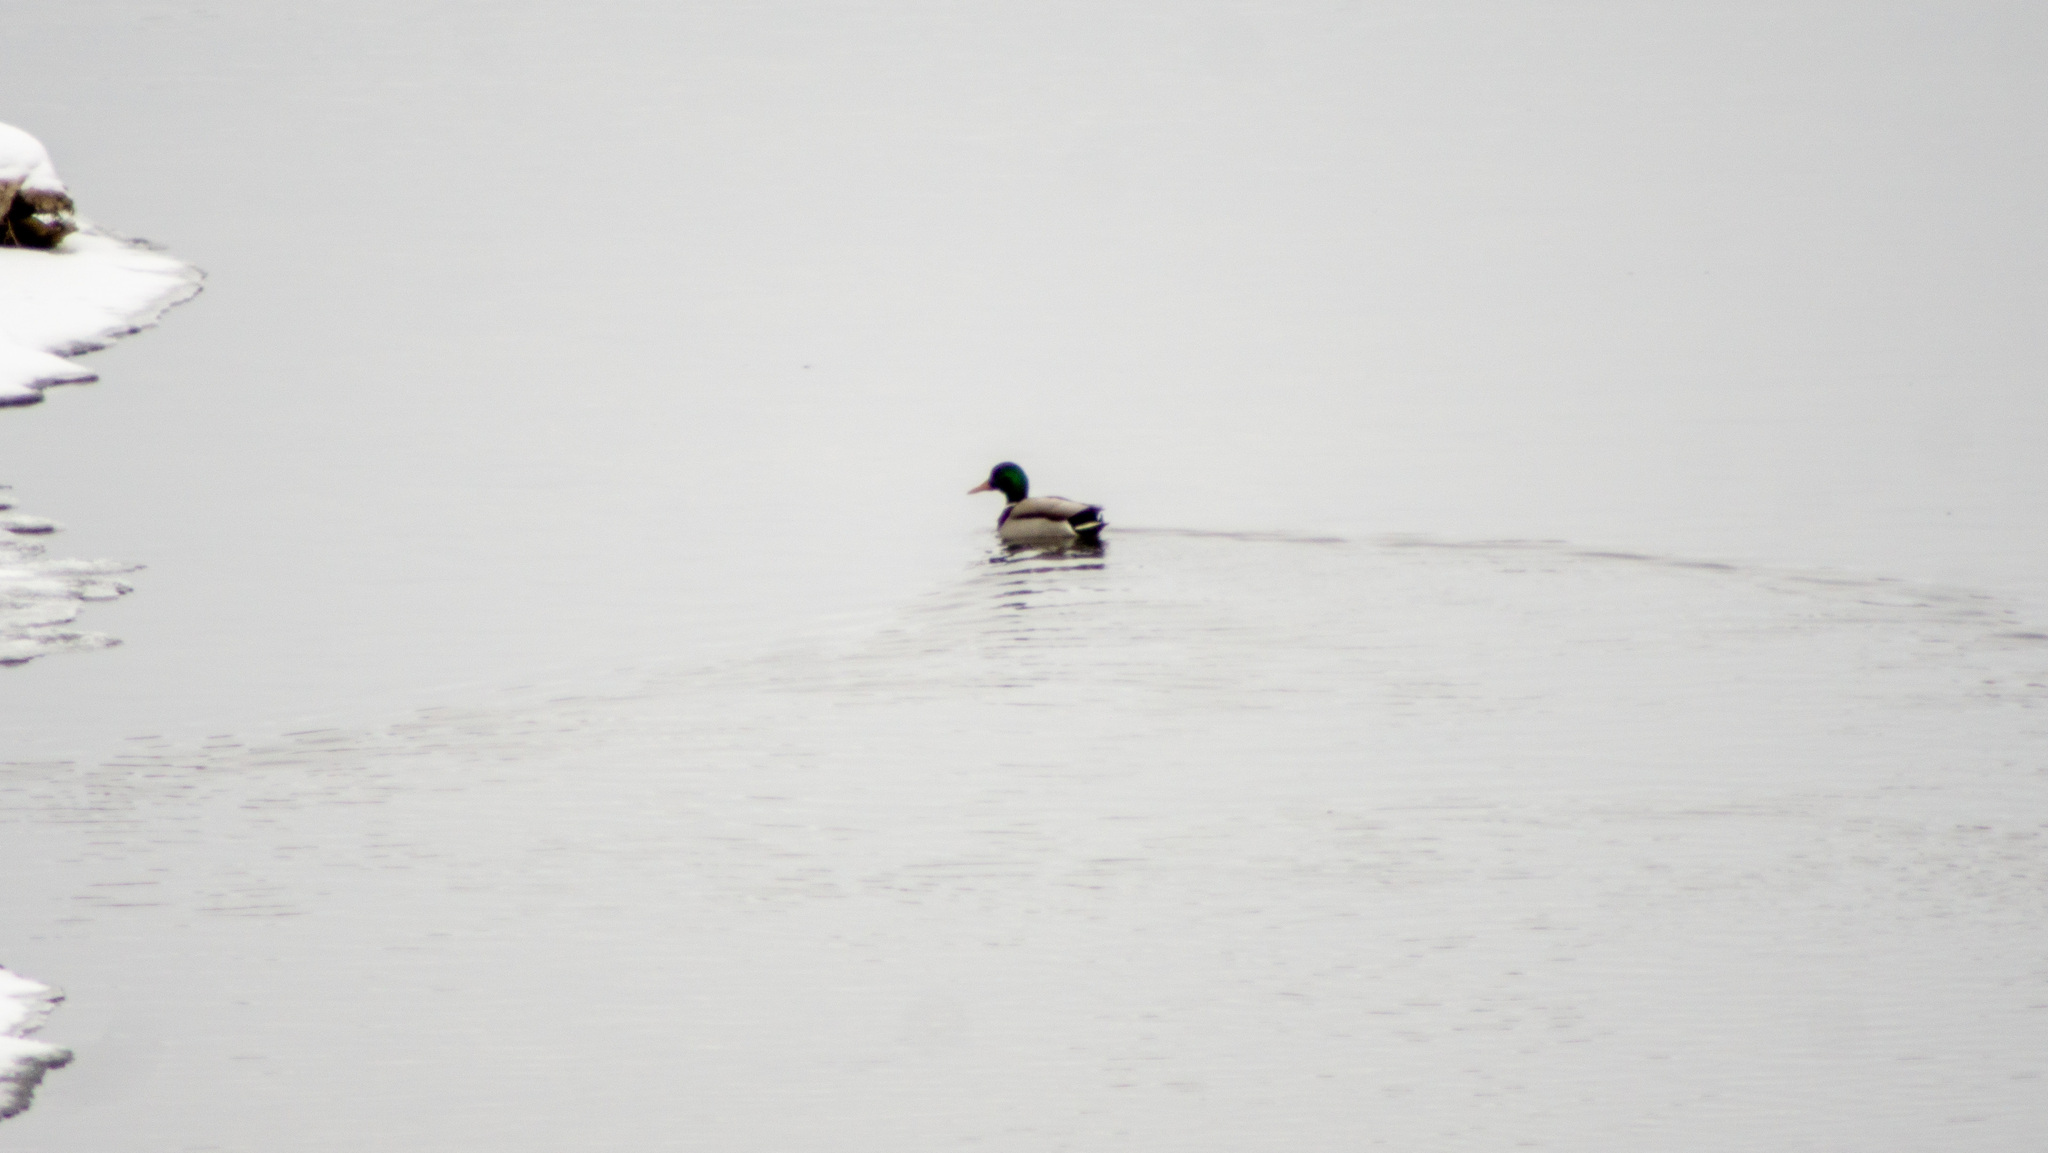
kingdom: Animalia
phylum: Chordata
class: Aves
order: Anseriformes
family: Anatidae
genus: Anas
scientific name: Anas platyrhynchos
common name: Mallard
